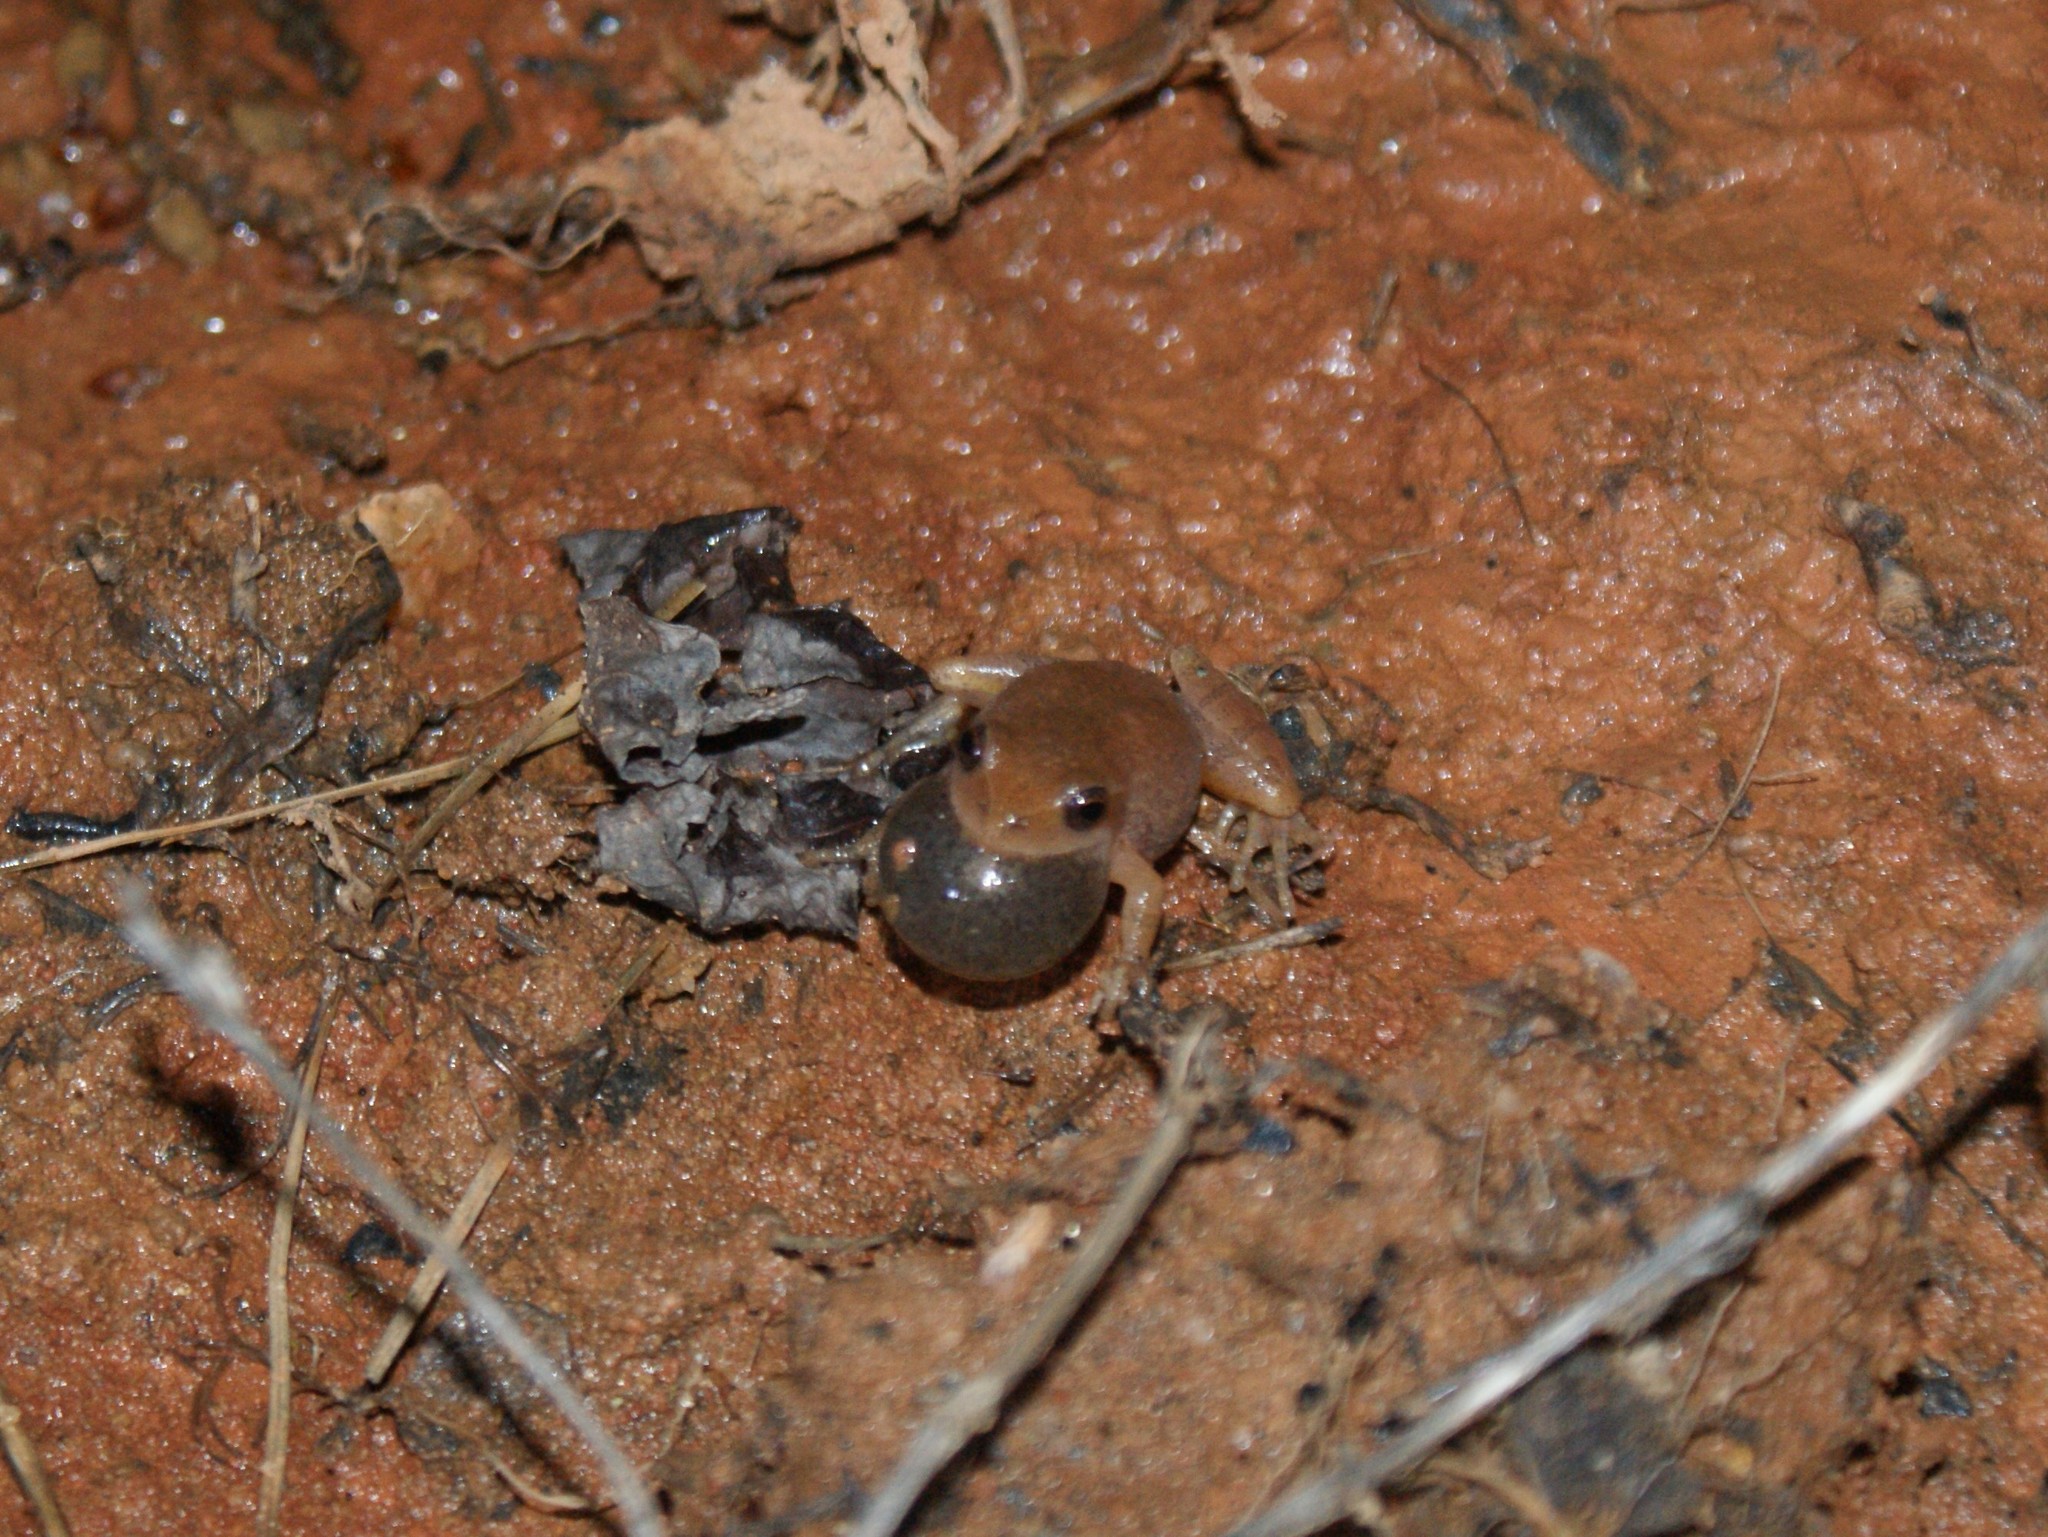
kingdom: Animalia
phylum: Chordata
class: Amphibia
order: Anura
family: Hylidae
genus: Pseudacris
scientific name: Pseudacris crucifer
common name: Spring peeper
